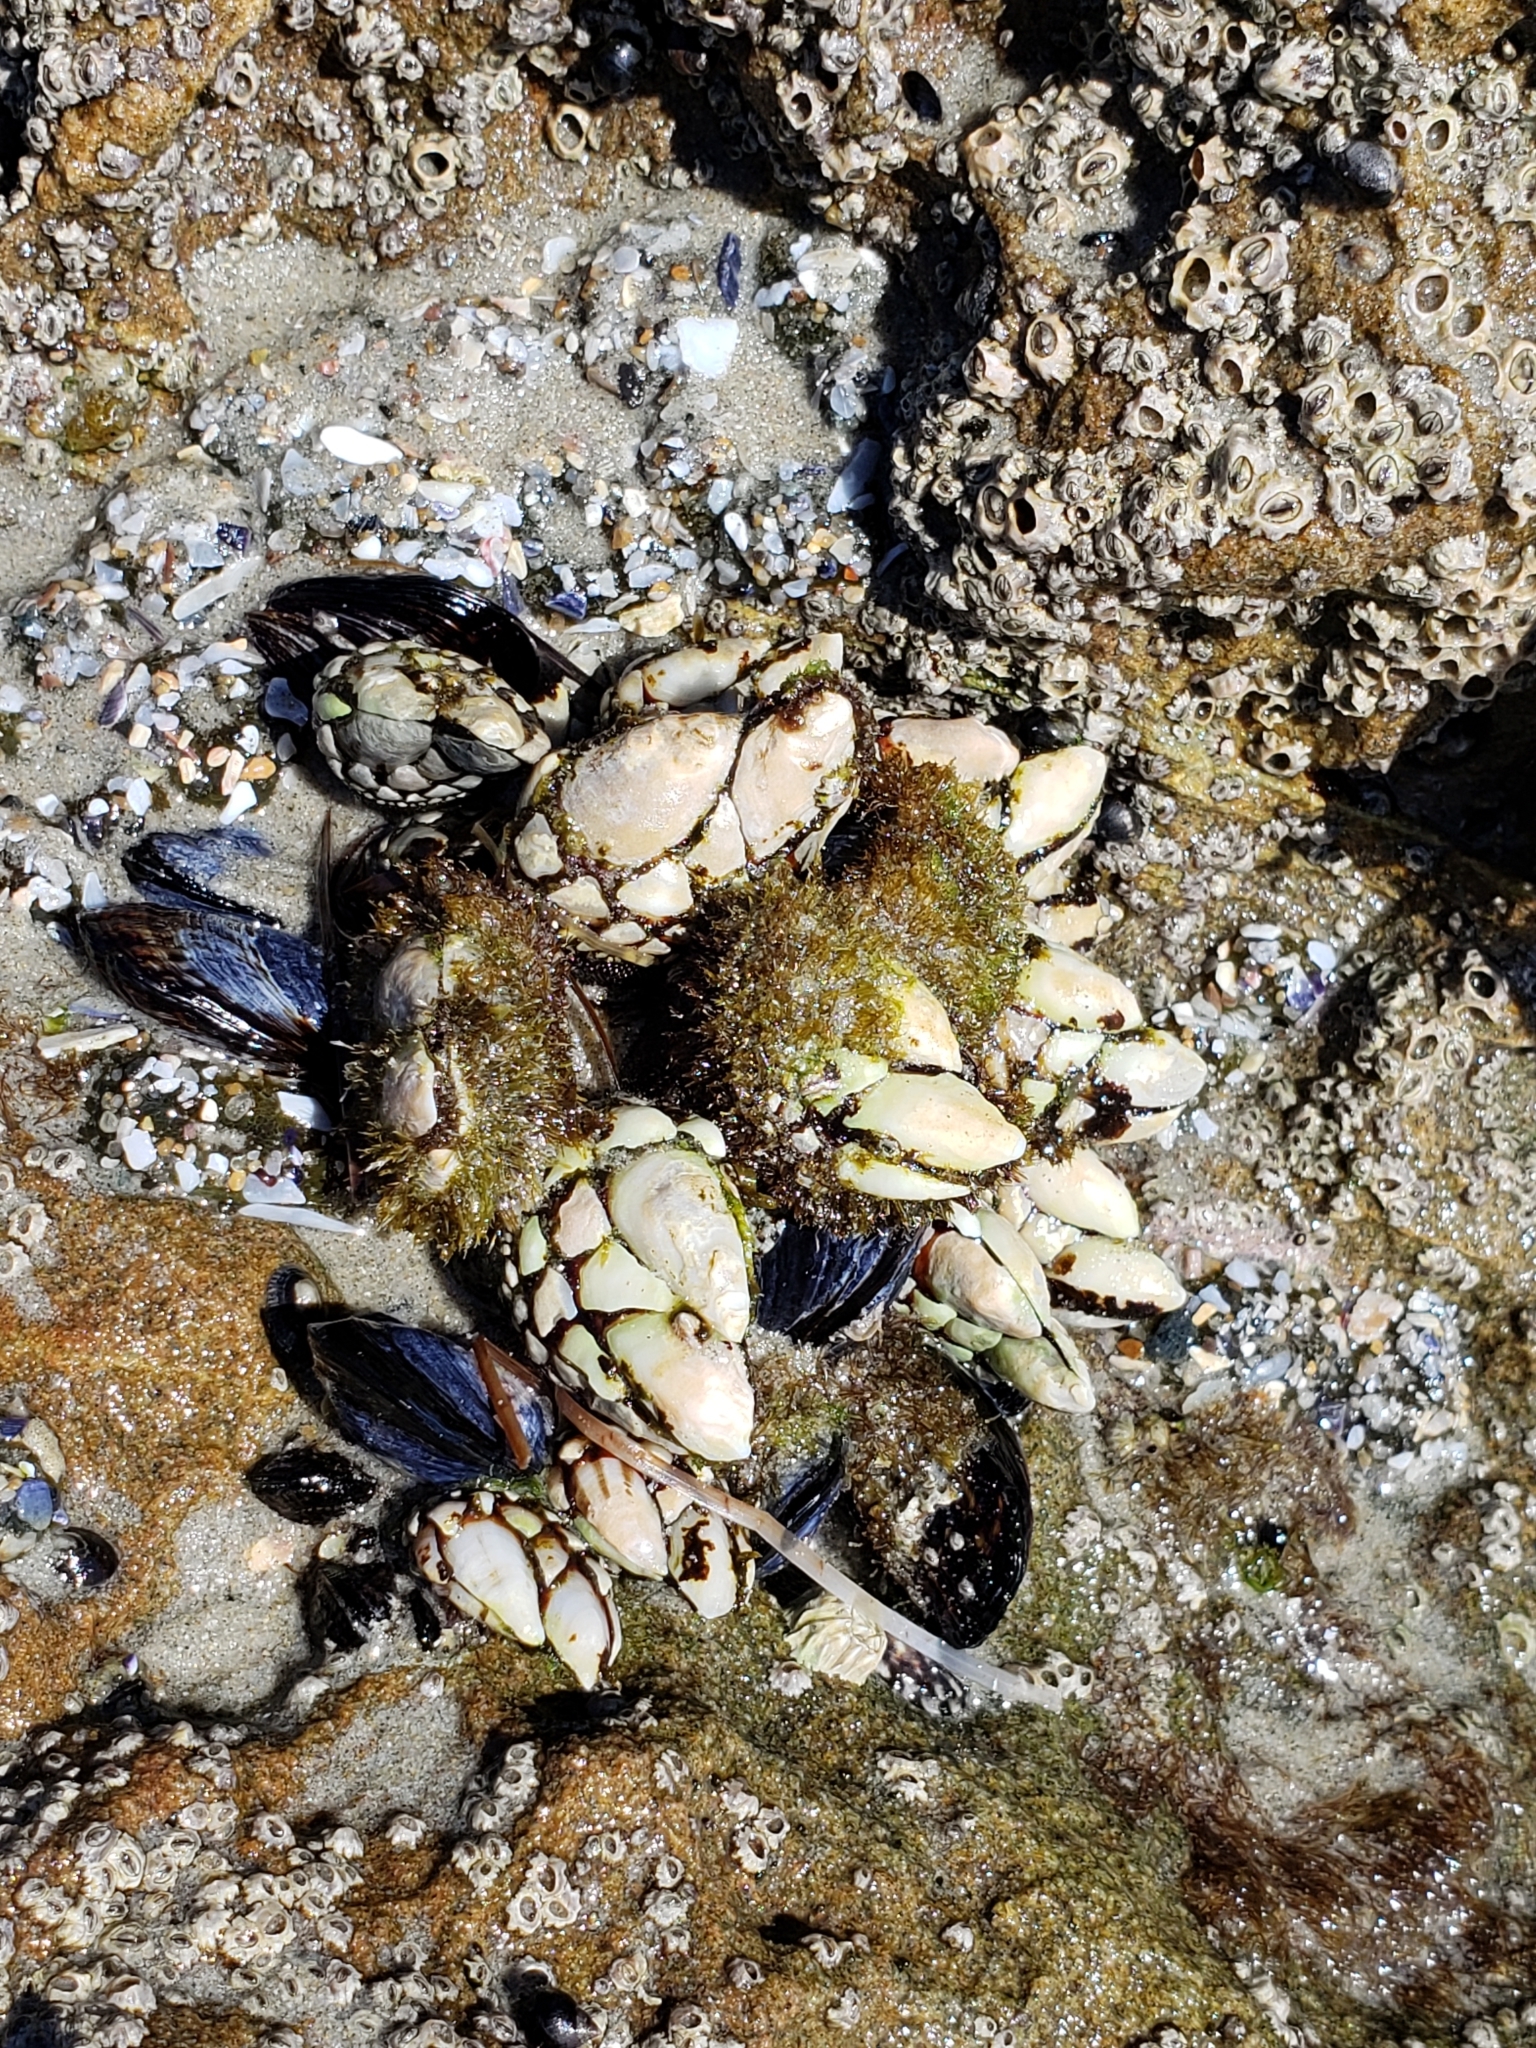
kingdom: Animalia
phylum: Arthropoda
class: Maxillopoda
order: Pedunculata
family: Pollicipedidae
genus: Pollicipes
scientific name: Pollicipes polymerus
